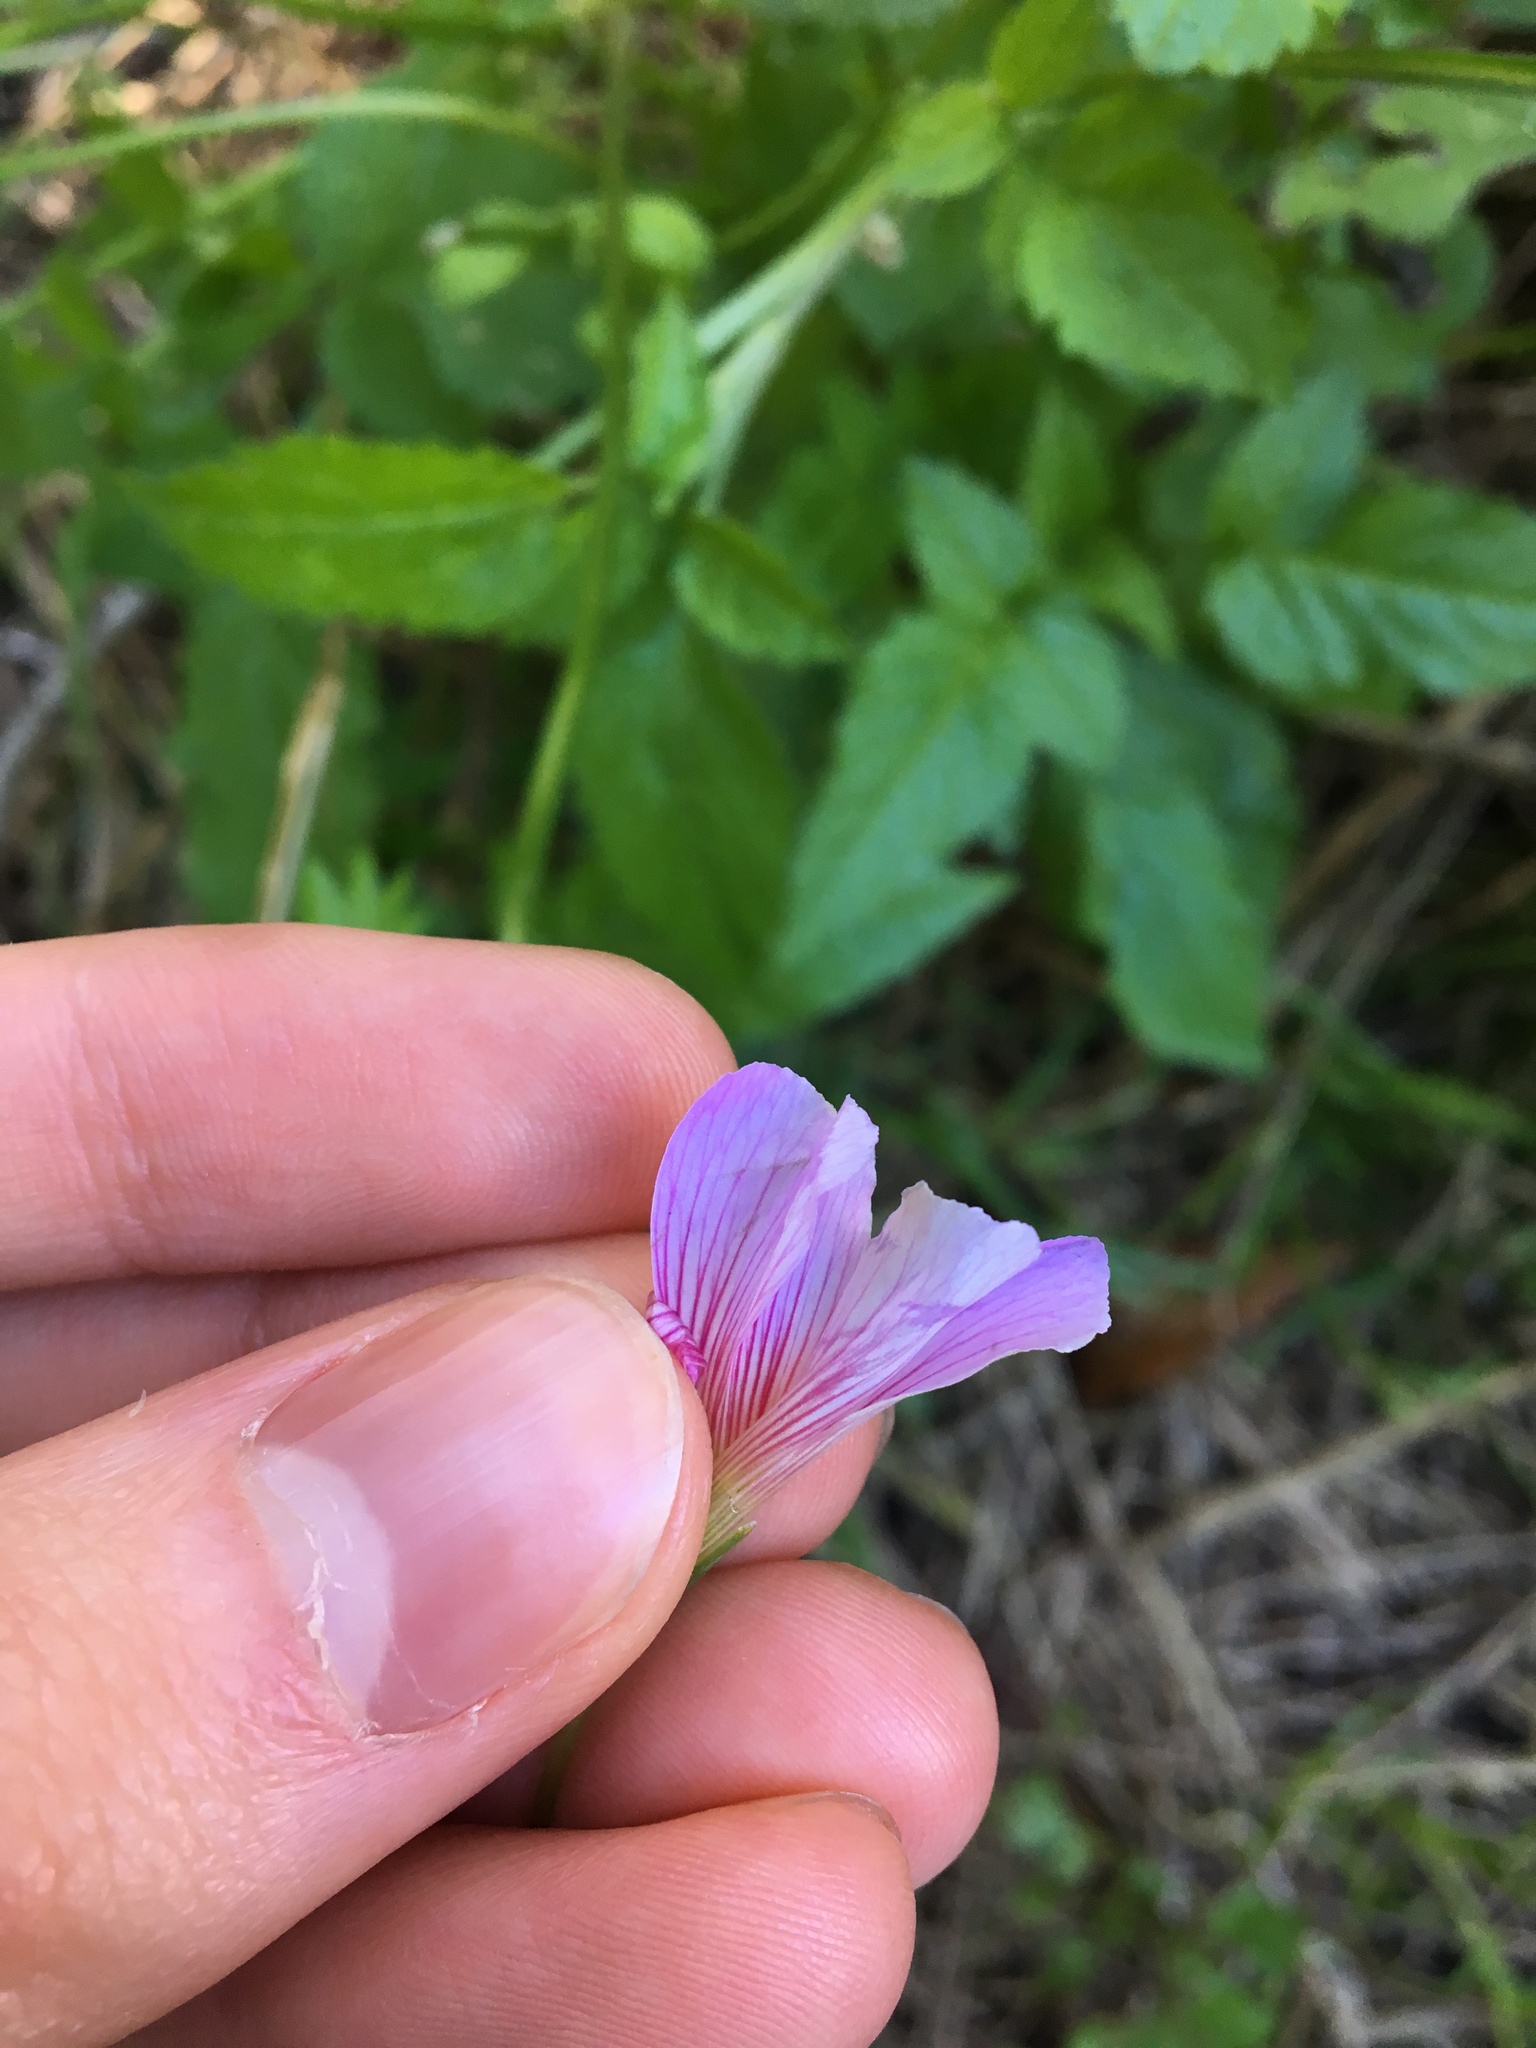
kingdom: Plantae
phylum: Tracheophyta
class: Magnoliopsida
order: Oxalidales
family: Oxalidaceae
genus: Oxalis
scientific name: Oxalis debilis
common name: Large-flowered pink-sorrel
